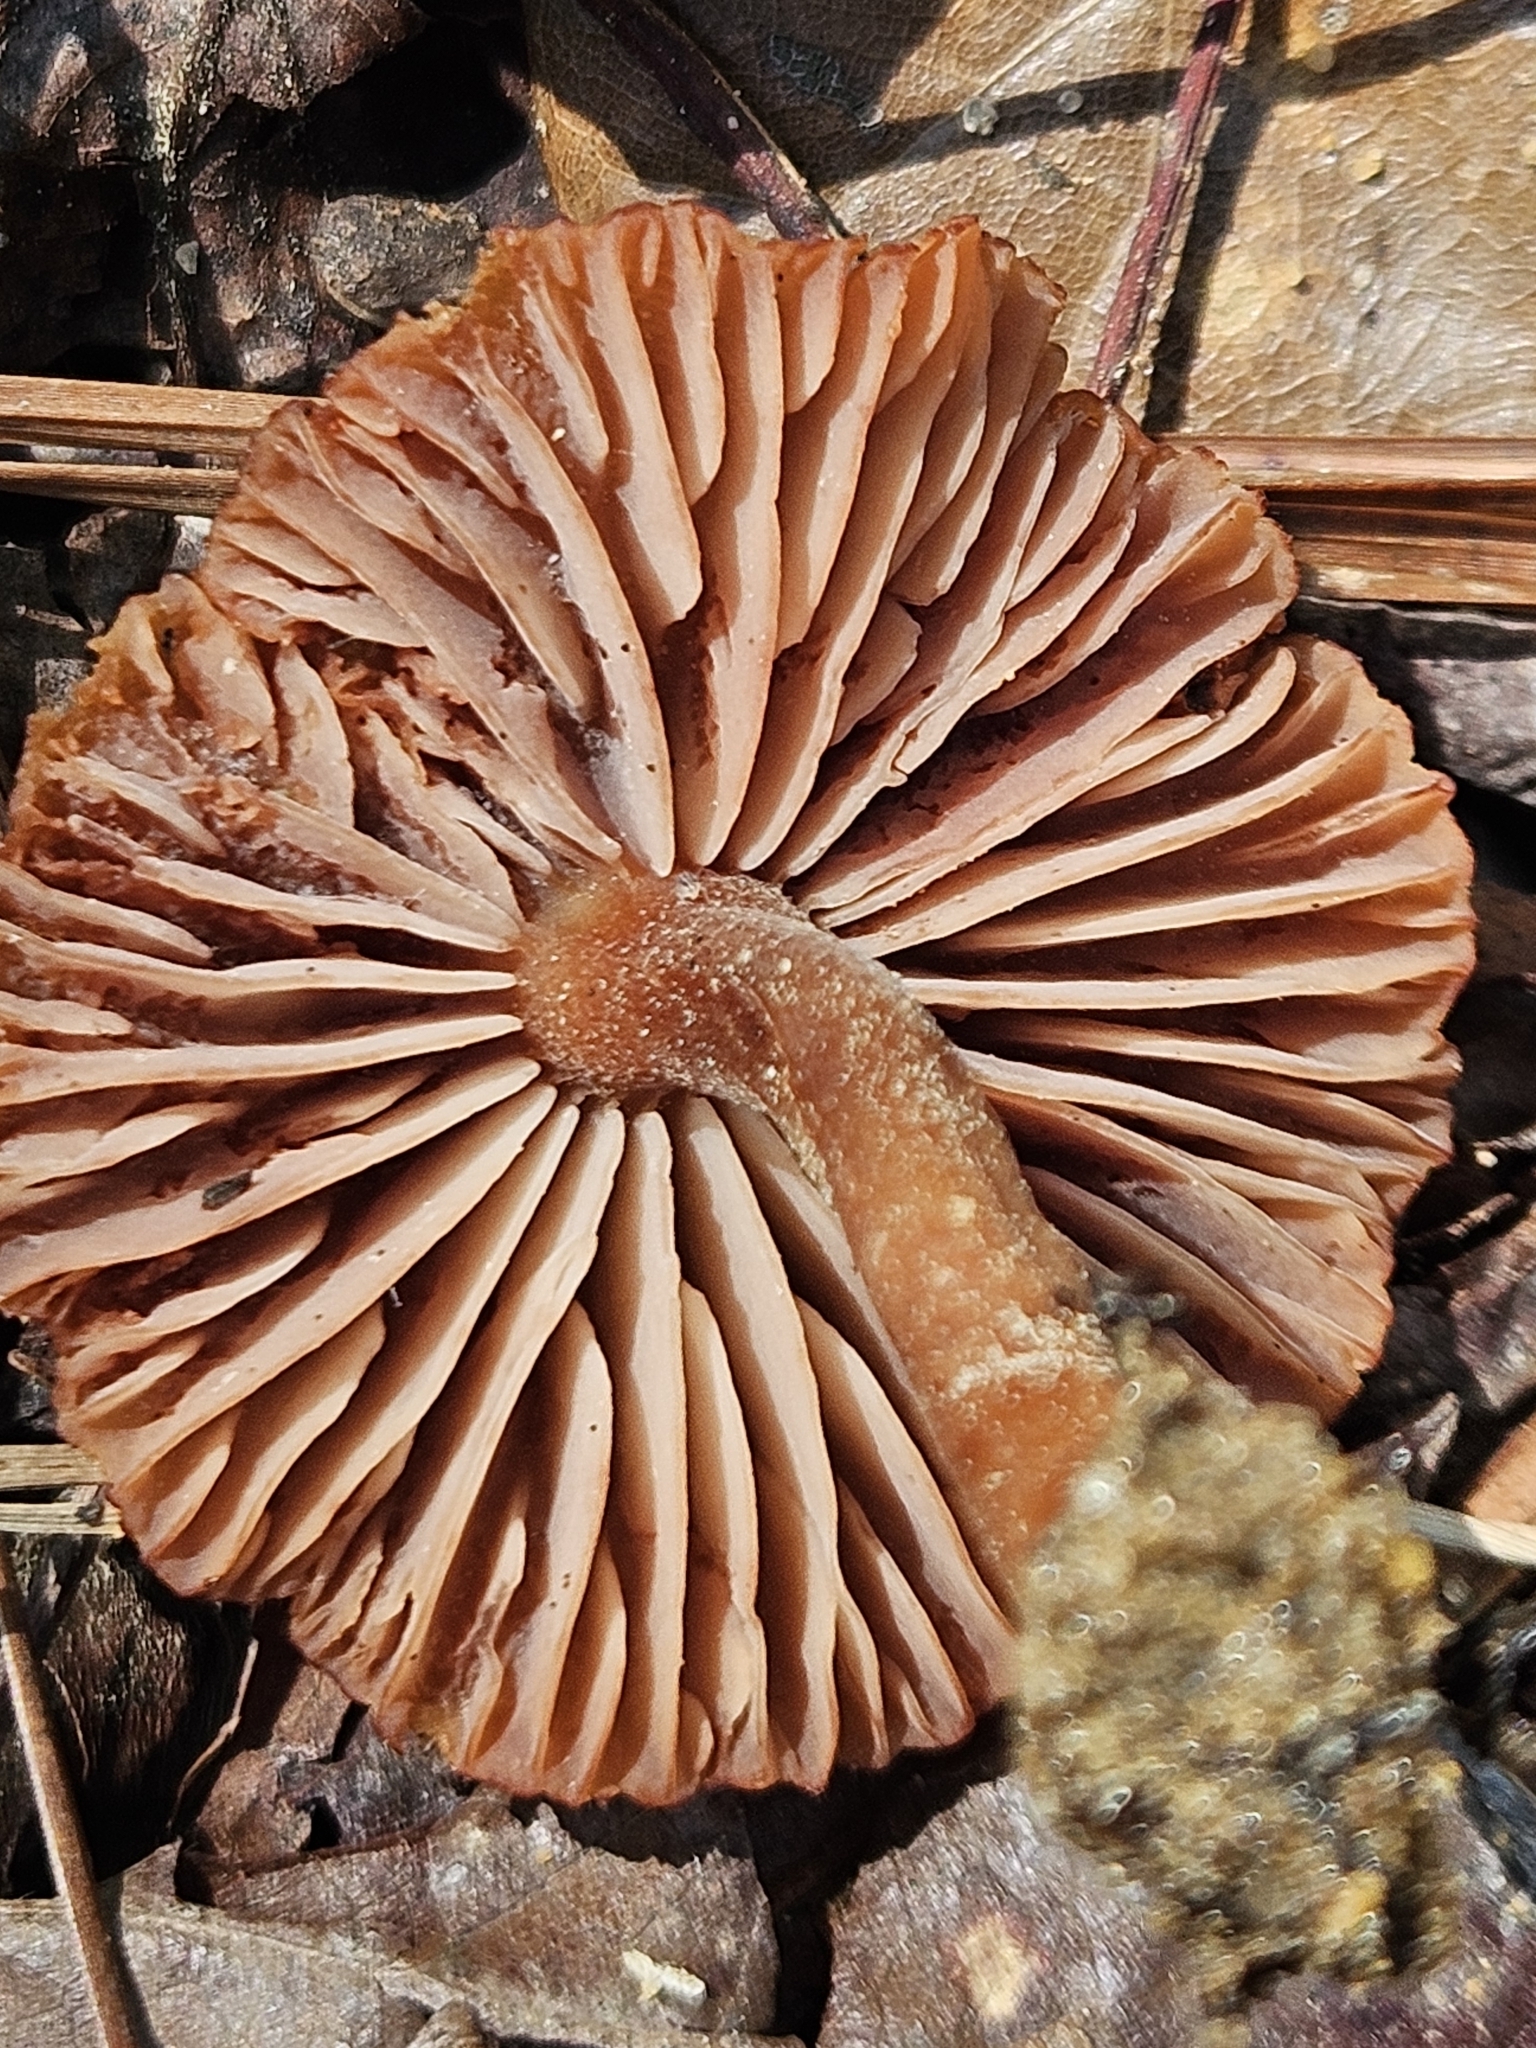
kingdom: Fungi
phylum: Basidiomycota
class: Agaricomycetes
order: Agaricales
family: Hydnangiaceae
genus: Laccaria
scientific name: Laccaria laccata
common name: Deceiver
